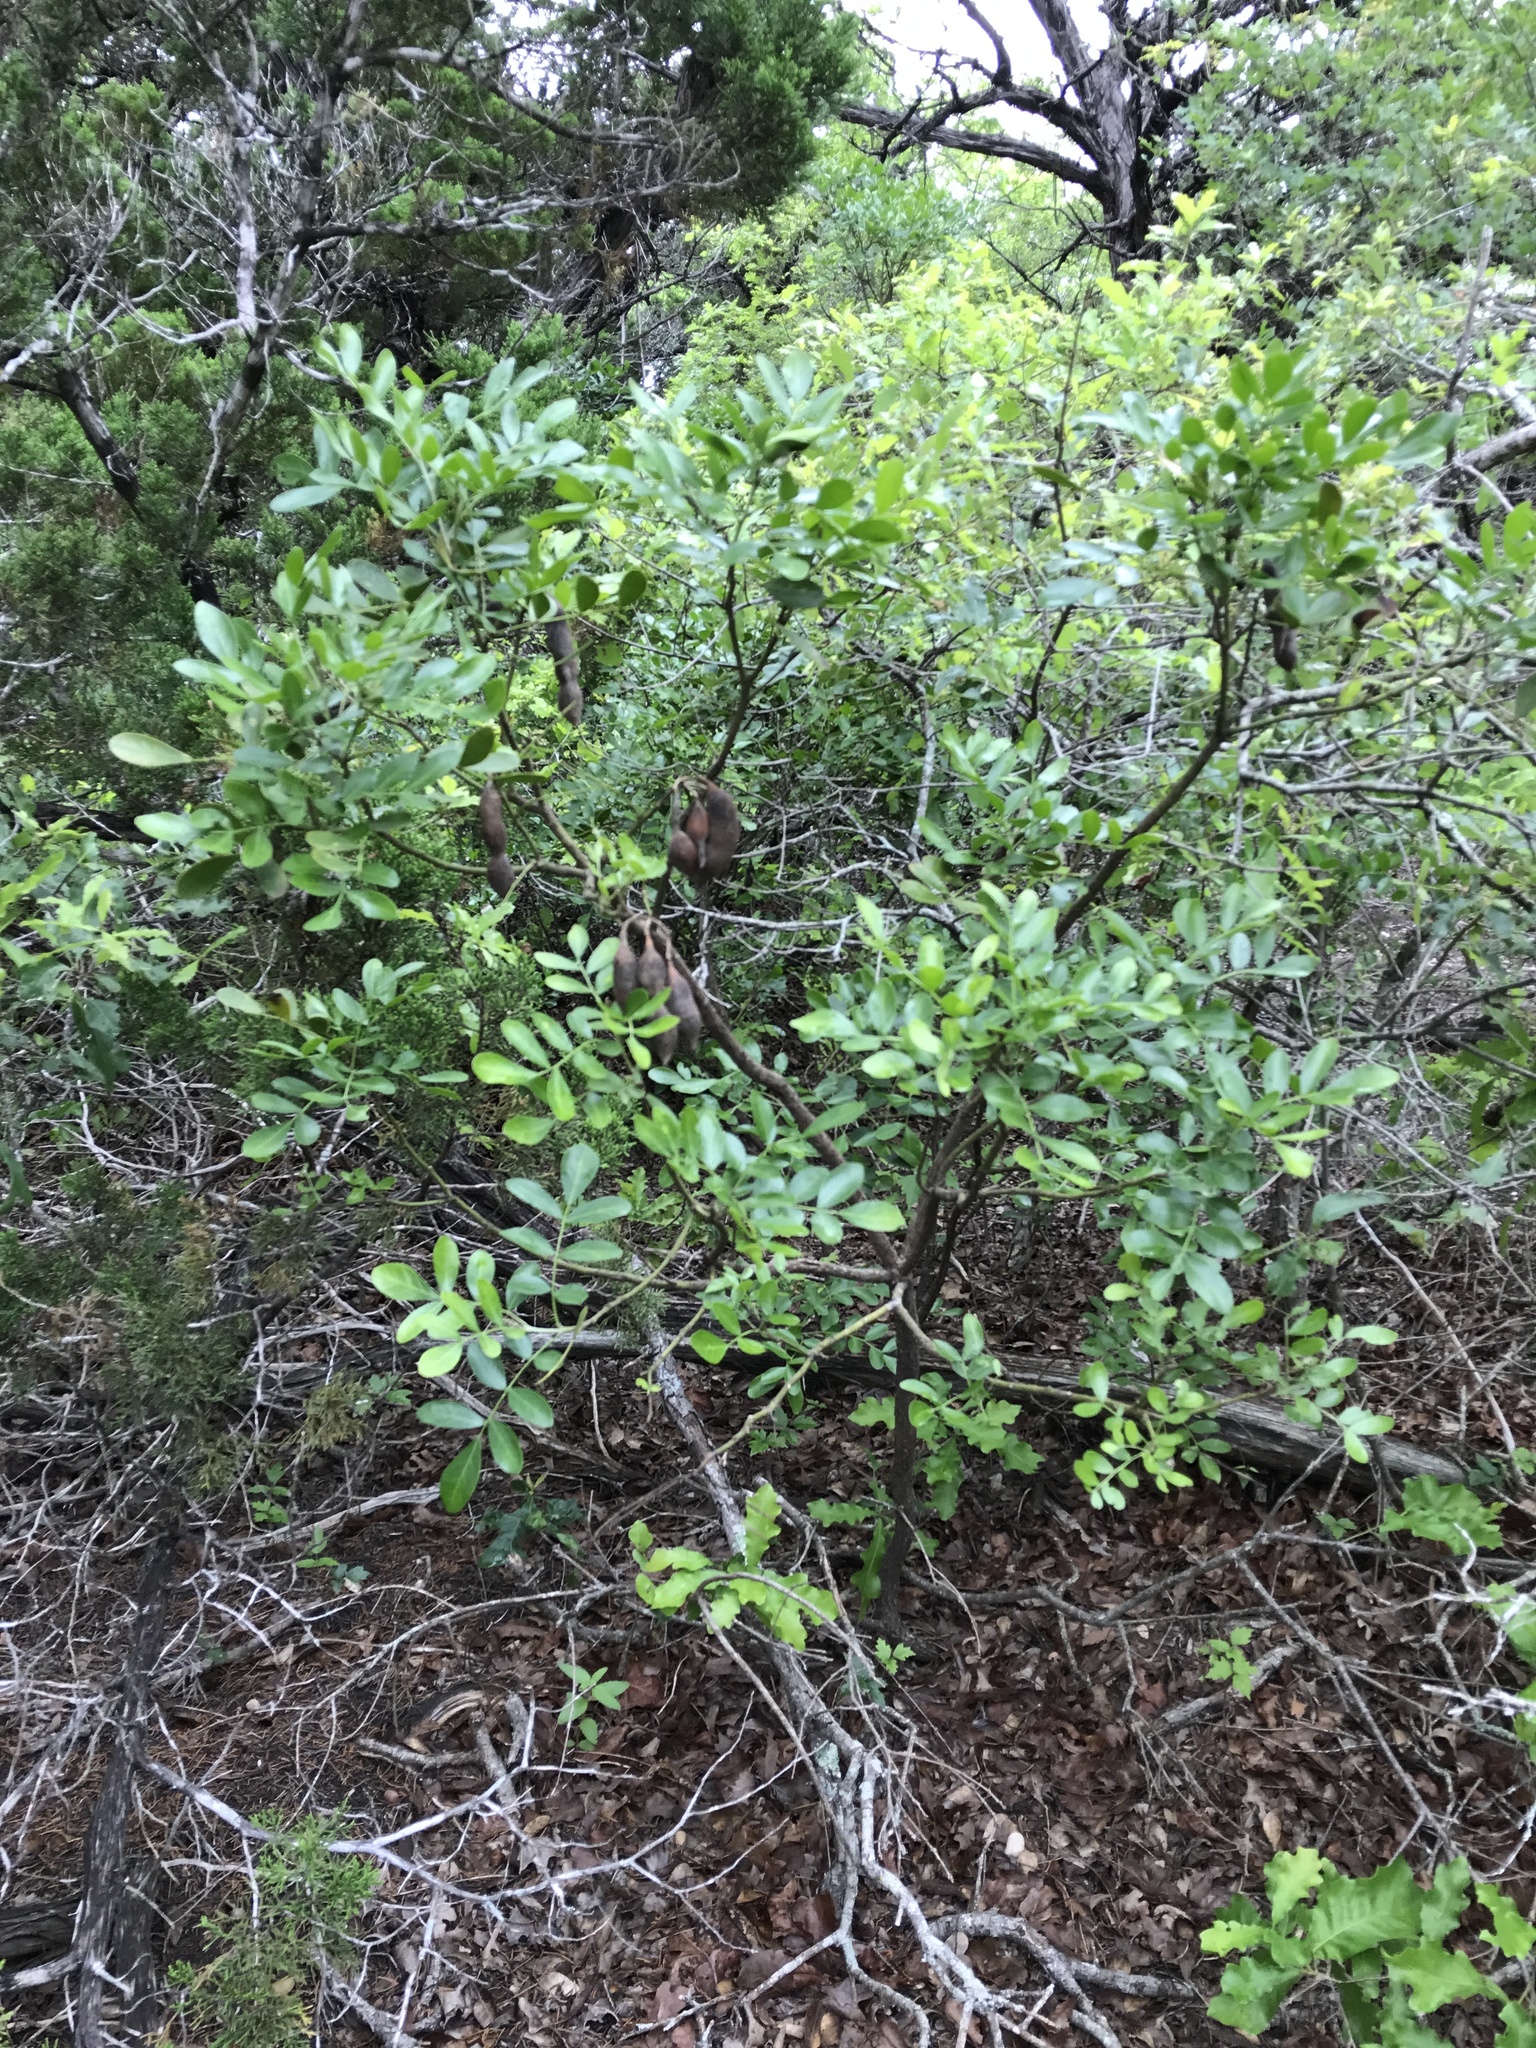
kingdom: Plantae
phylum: Tracheophyta
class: Magnoliopsida
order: Fabales
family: Fabaceae
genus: Dermatophyllum
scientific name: Dermatophyllum secundiflorum
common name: Texas-mountain-laurel
